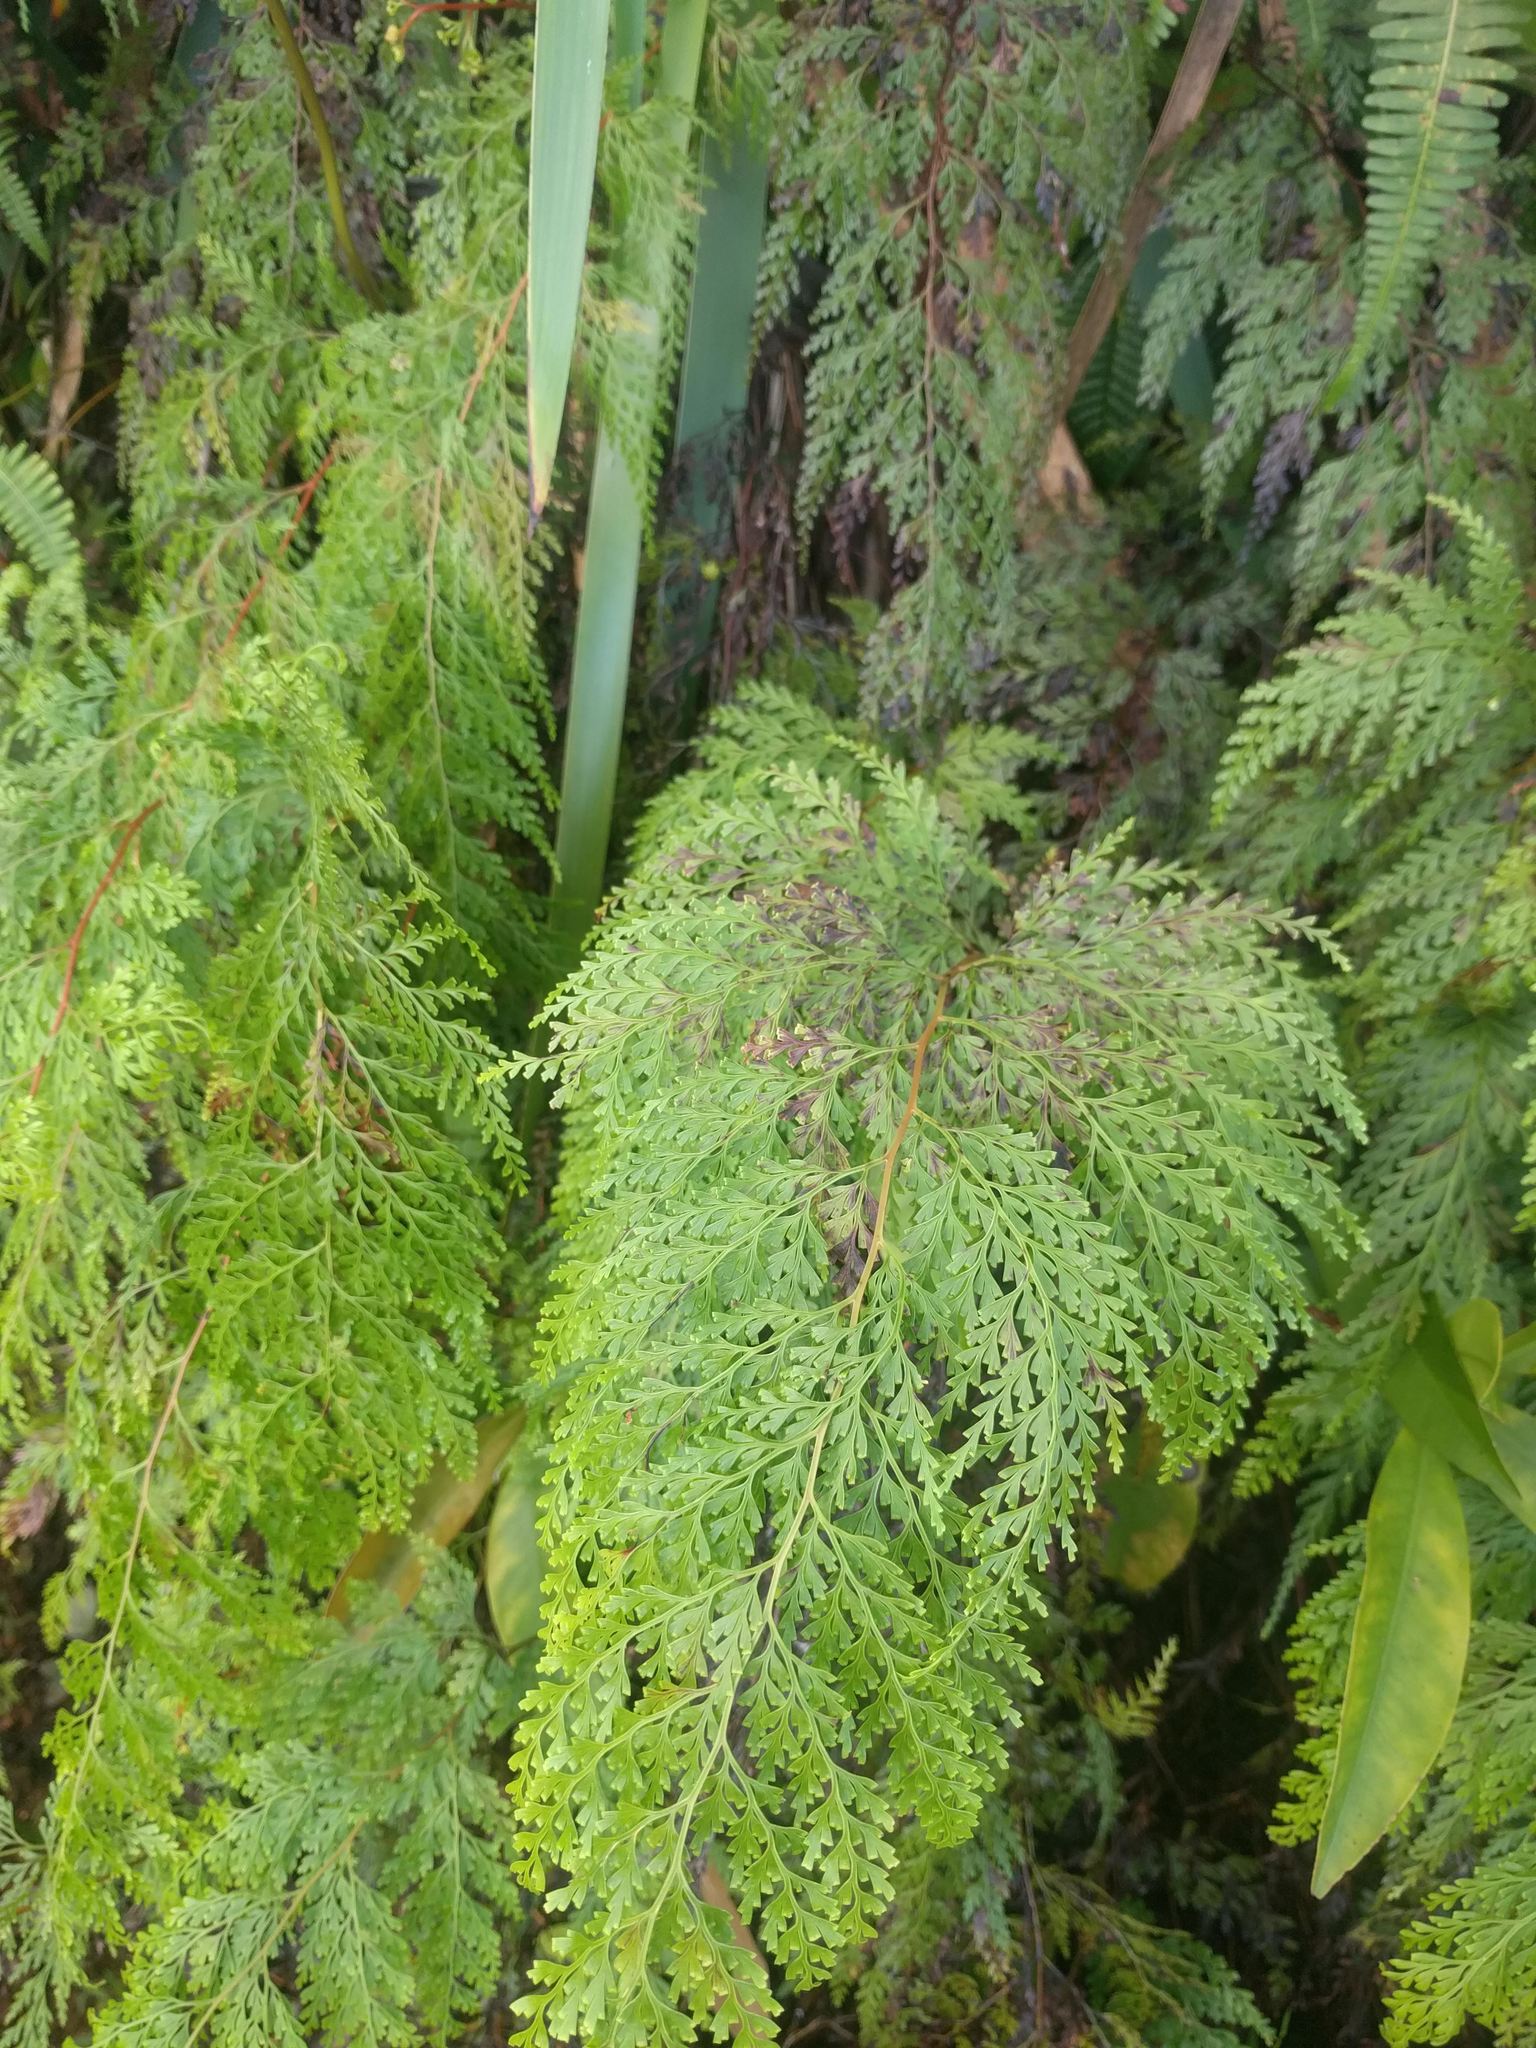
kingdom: Plantae
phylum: Tracheophyta
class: Polypodiopsida
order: Polypodiales
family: Lindsaeaceae
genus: Odontosoria
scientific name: Odontosoria chinensis
